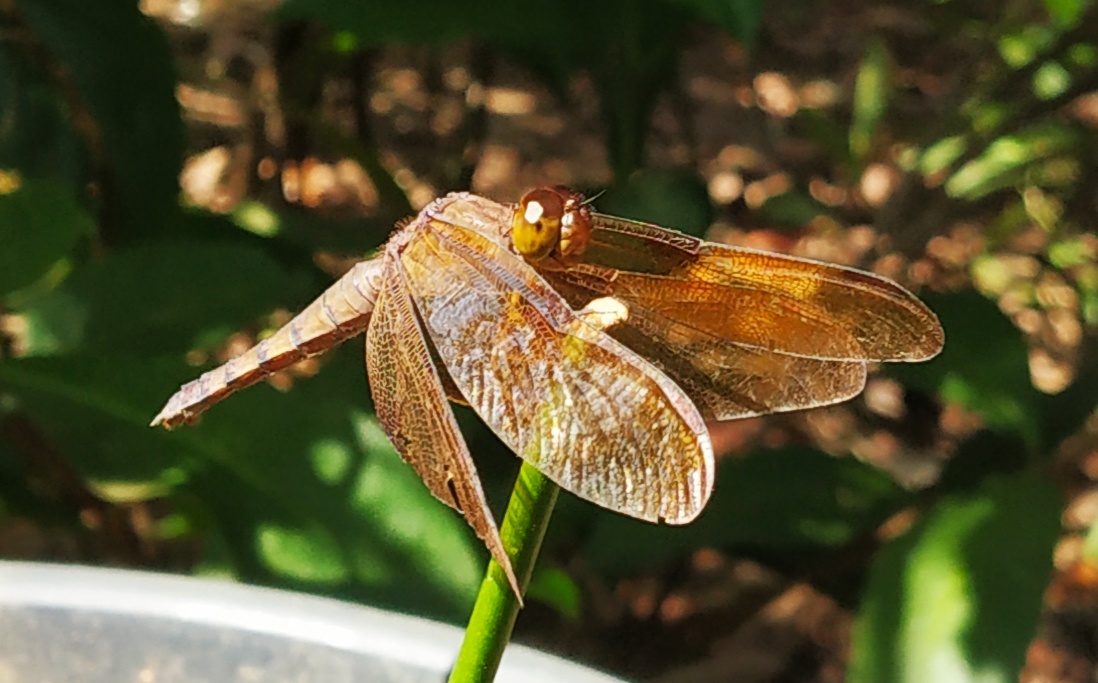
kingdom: Animalia
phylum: Arthropoda
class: Insecta
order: Odonata
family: Libellulidae
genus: Neurothemis
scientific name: Neurothemis fulvia
